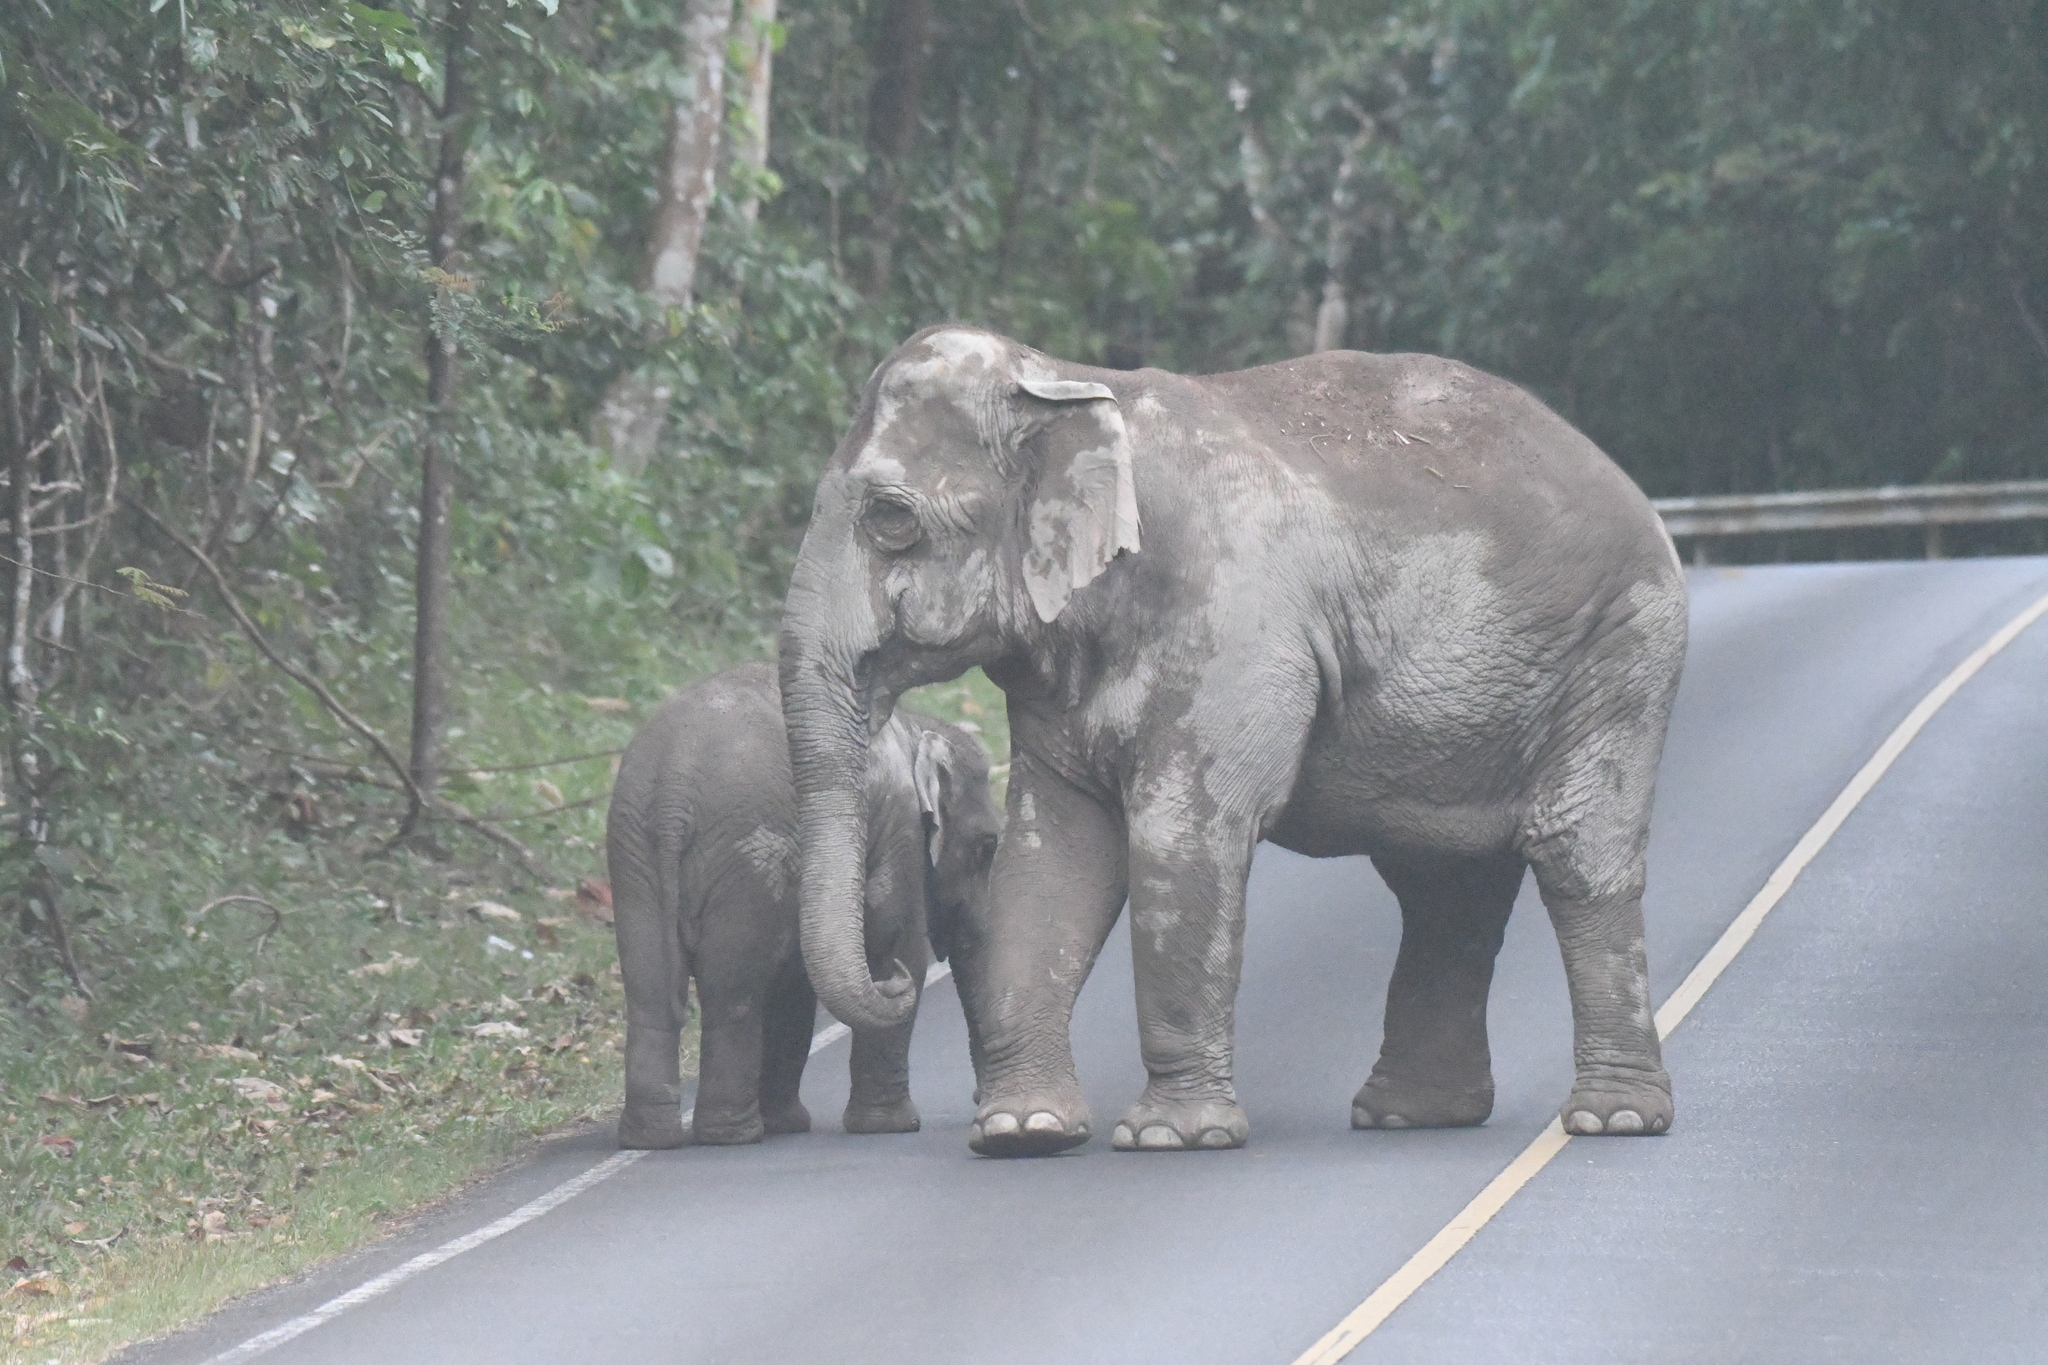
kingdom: Animalia
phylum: Chordata
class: Mammalia
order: Proboscidea
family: Elephantidae
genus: Elephas
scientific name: Elephas maximus
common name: Asian elephant
